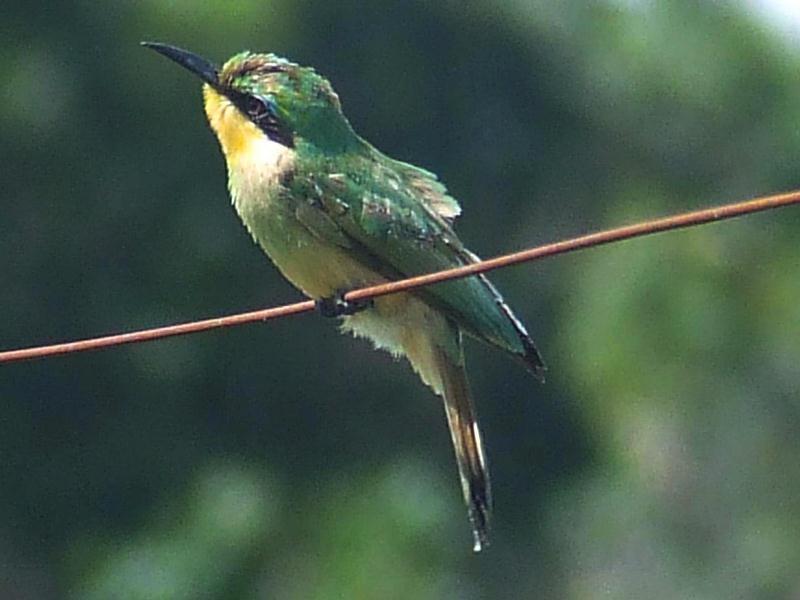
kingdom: Animalia
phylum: Chordata
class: Aves
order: Coraciiformes
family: Meropidae
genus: Merops
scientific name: Merops pusillus
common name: Little bee-eater
